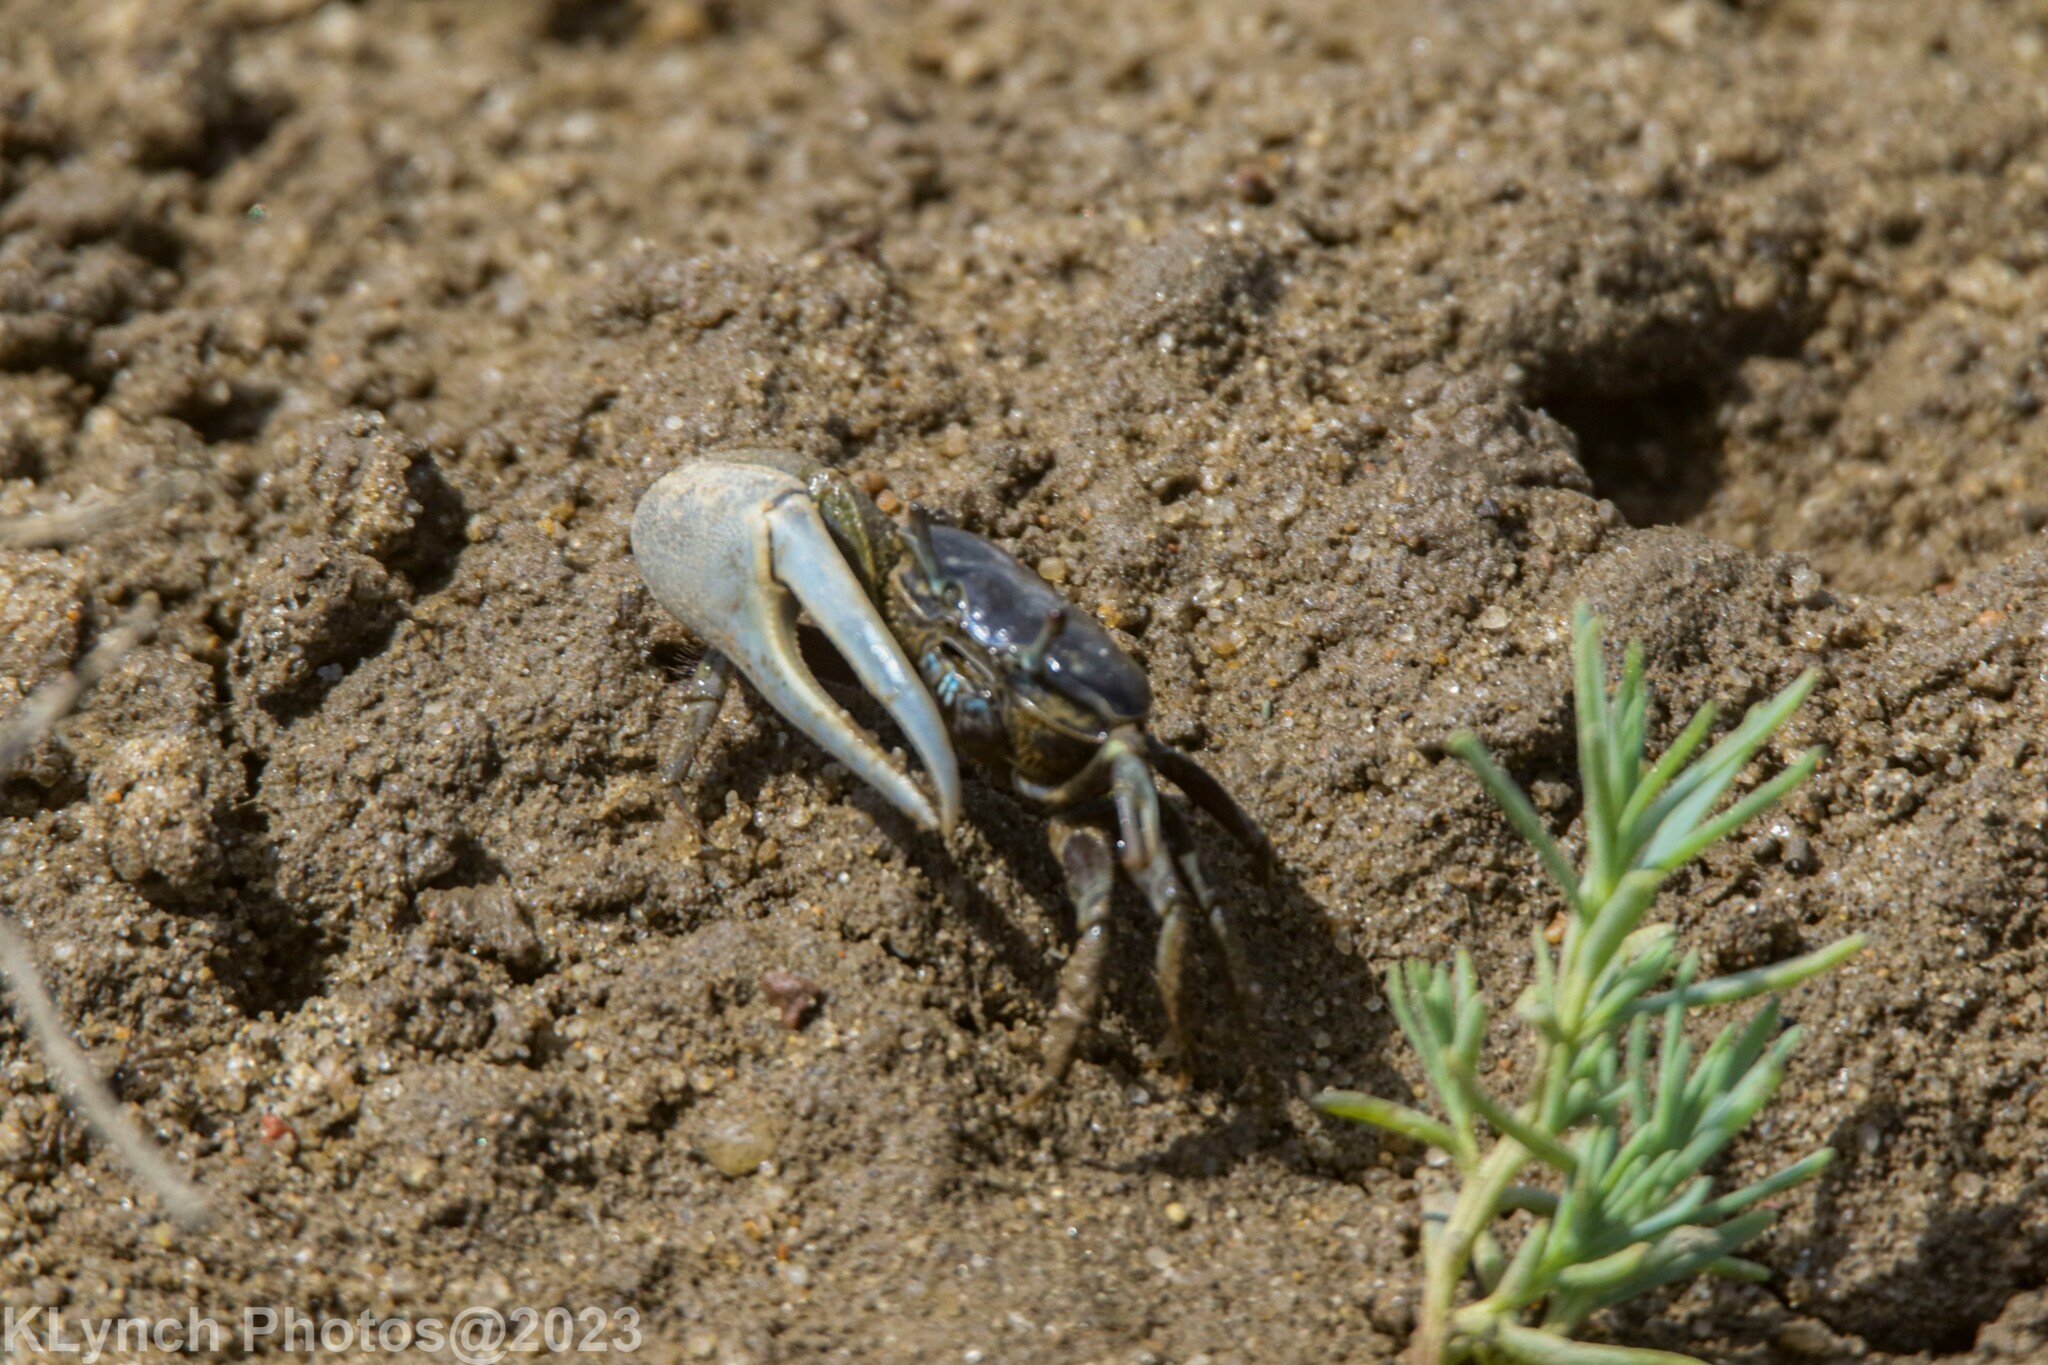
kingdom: Animalia
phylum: Arthropoda
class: Malacostraca
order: Decapoda
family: Ocypodidae
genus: Minuca
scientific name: Minuca pugnax
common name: Mud fiddler crab
